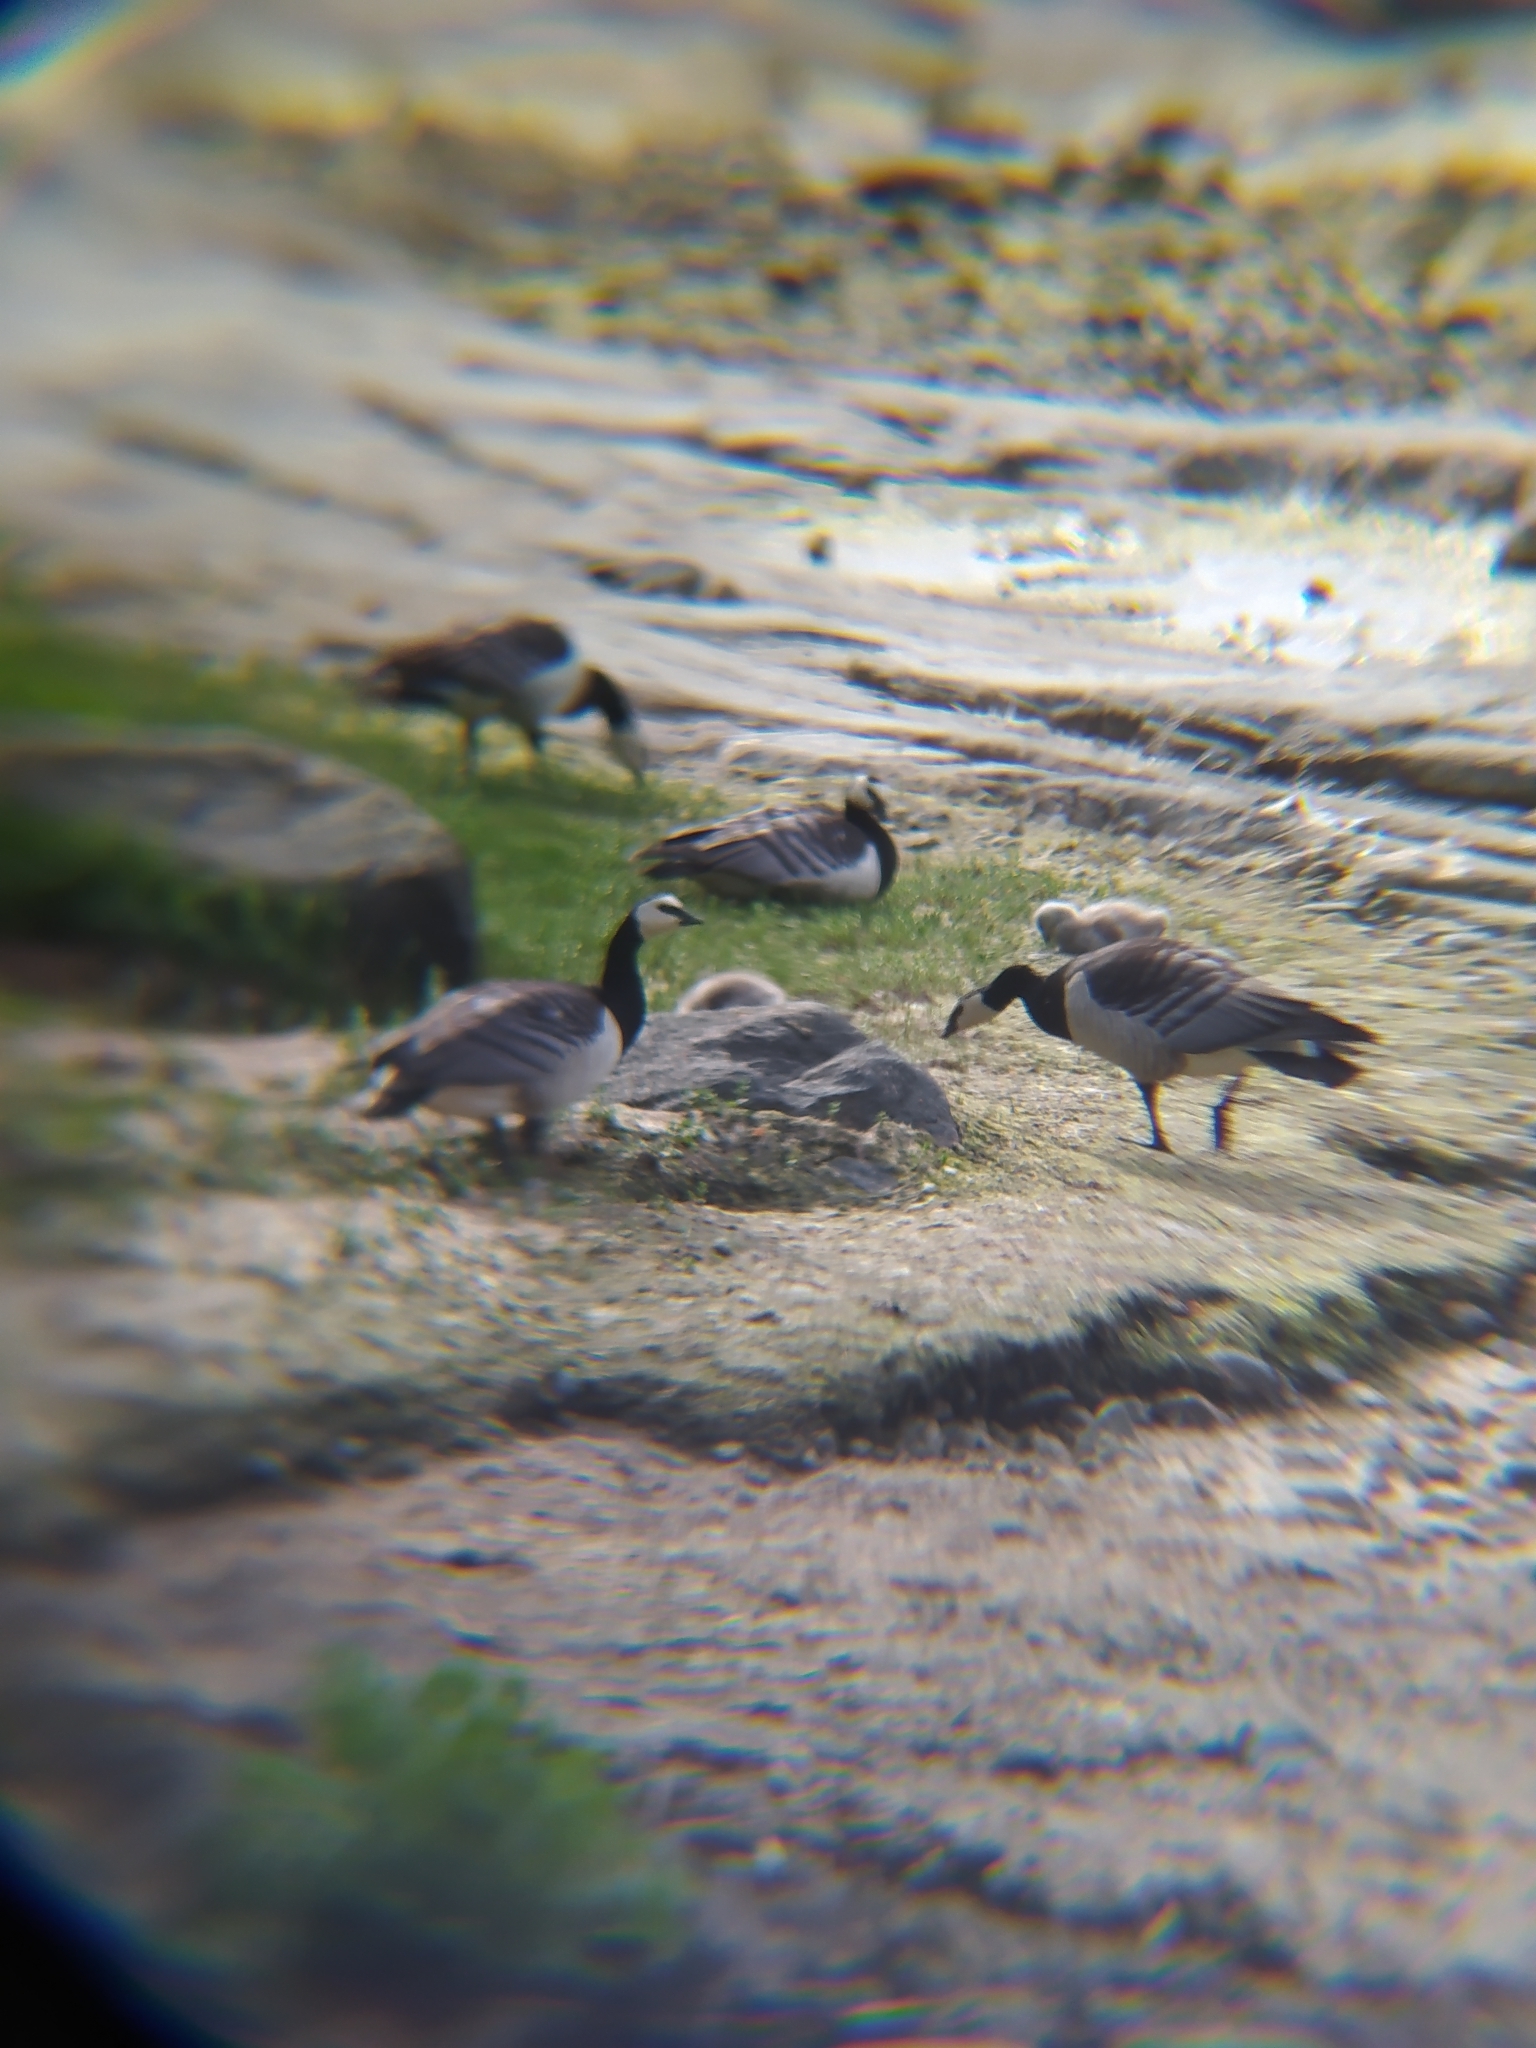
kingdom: Animalia
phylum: Chordata
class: Aves
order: Anseriformes
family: Anatidae
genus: Branta
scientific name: Branta leucopsis
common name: Barnacle goose
